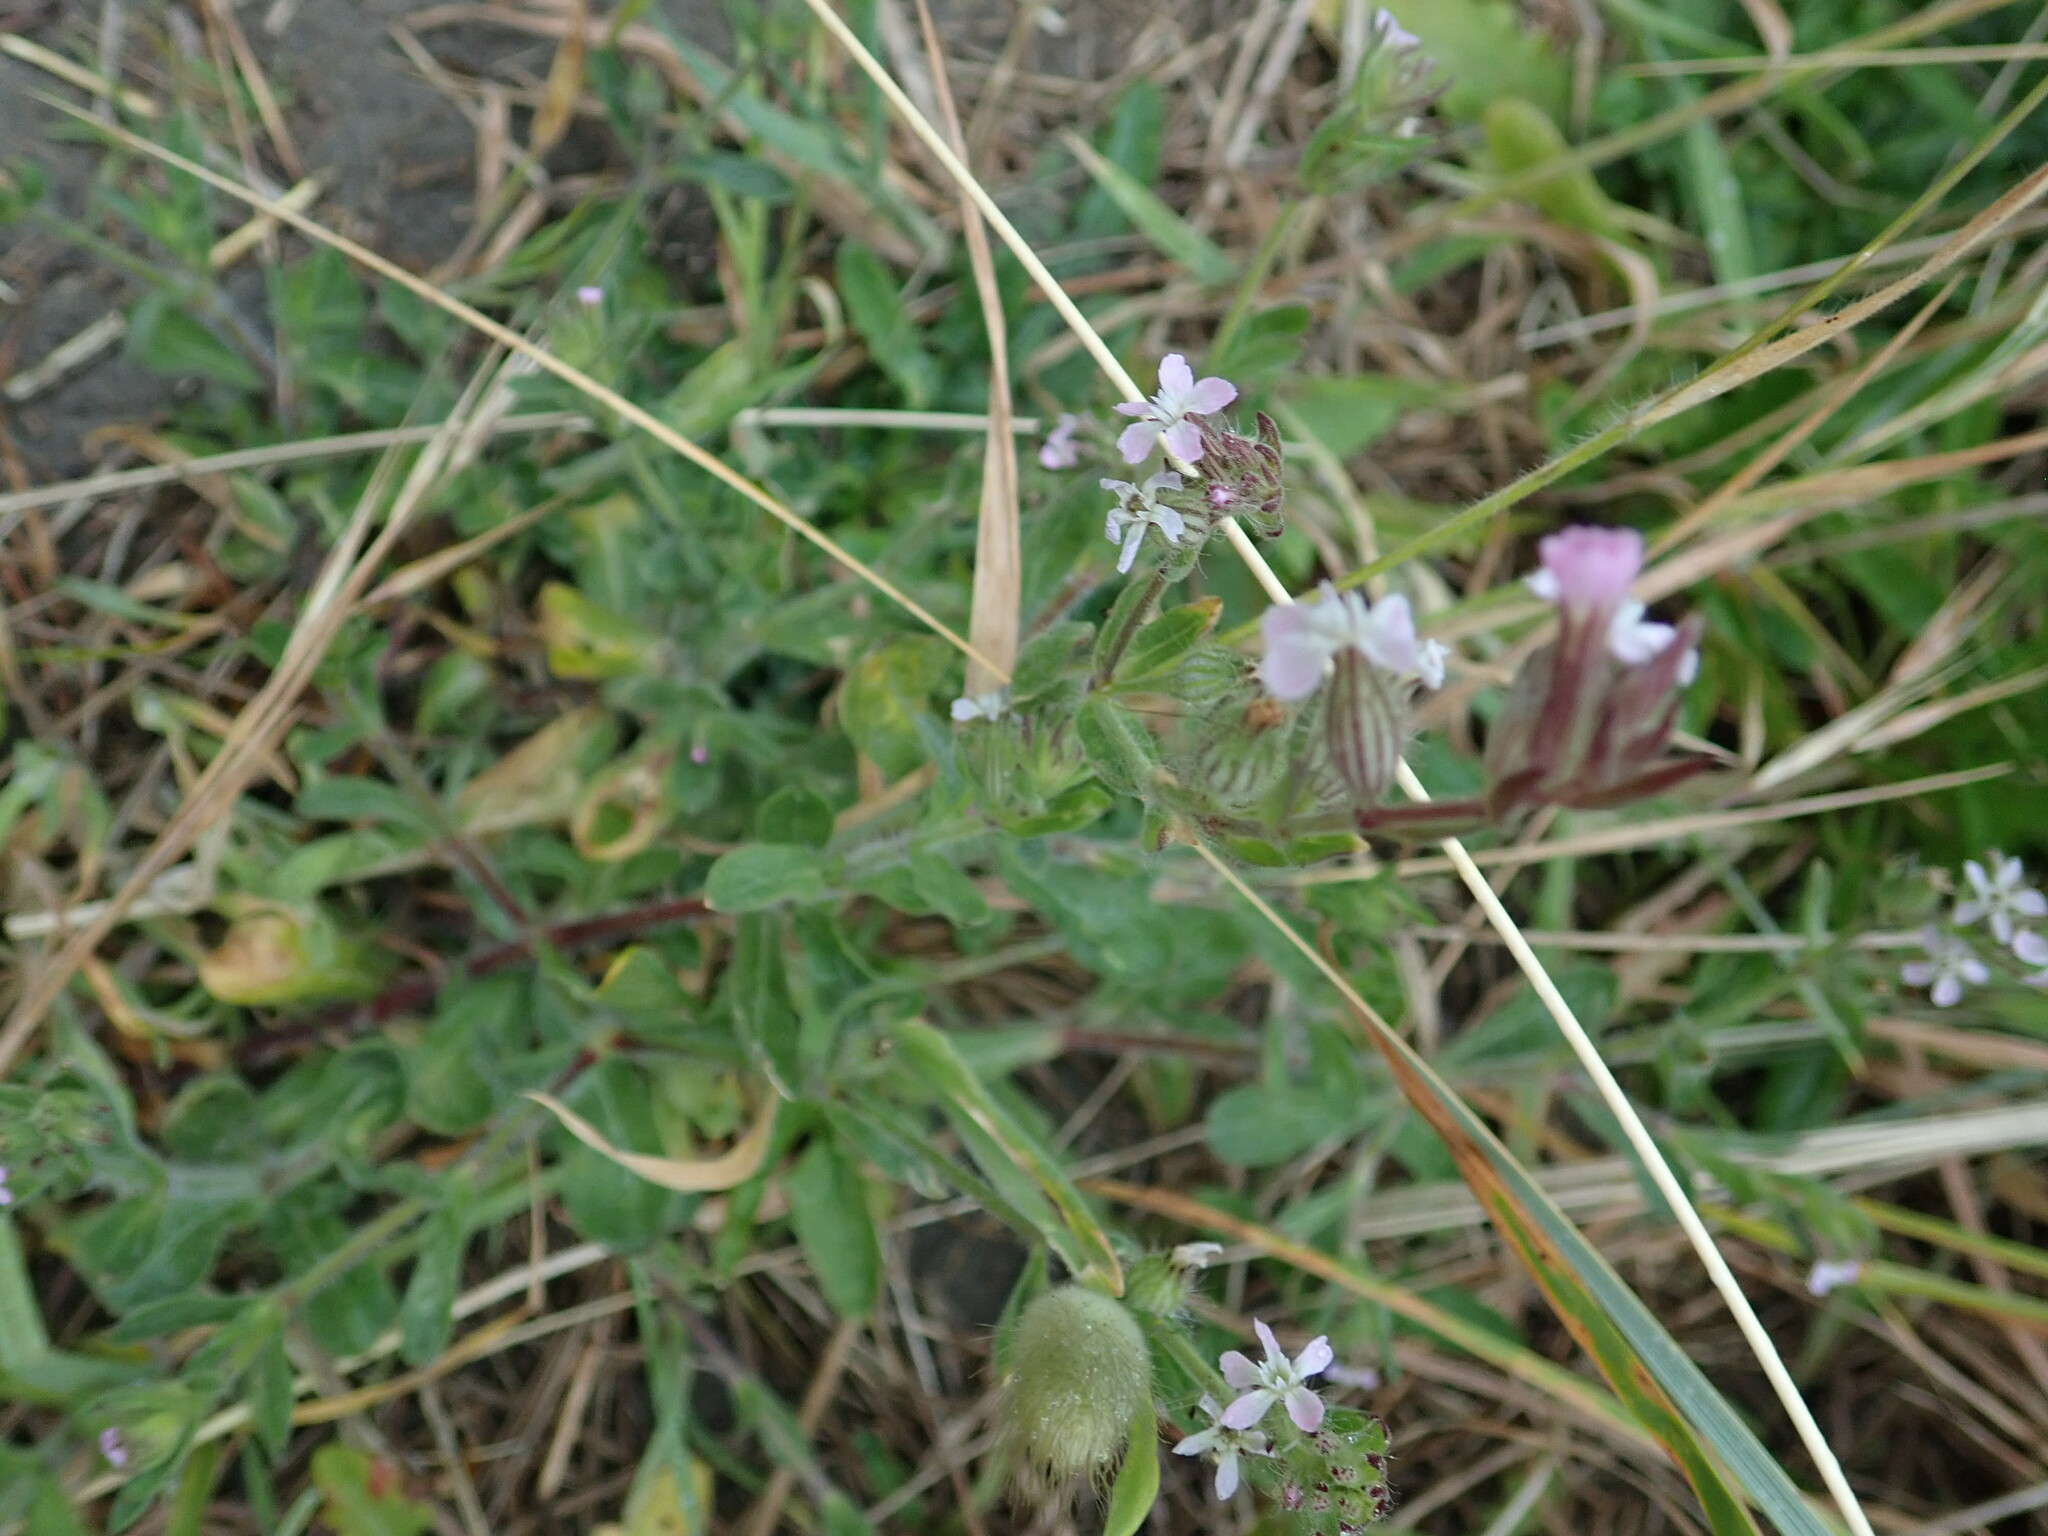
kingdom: Plantae
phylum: Tracheophyta
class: Magnoliopsida
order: Caryophyllales
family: Caryophyllaceae
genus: Silene
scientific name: Silene gallica
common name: Small-flowered catchfly
